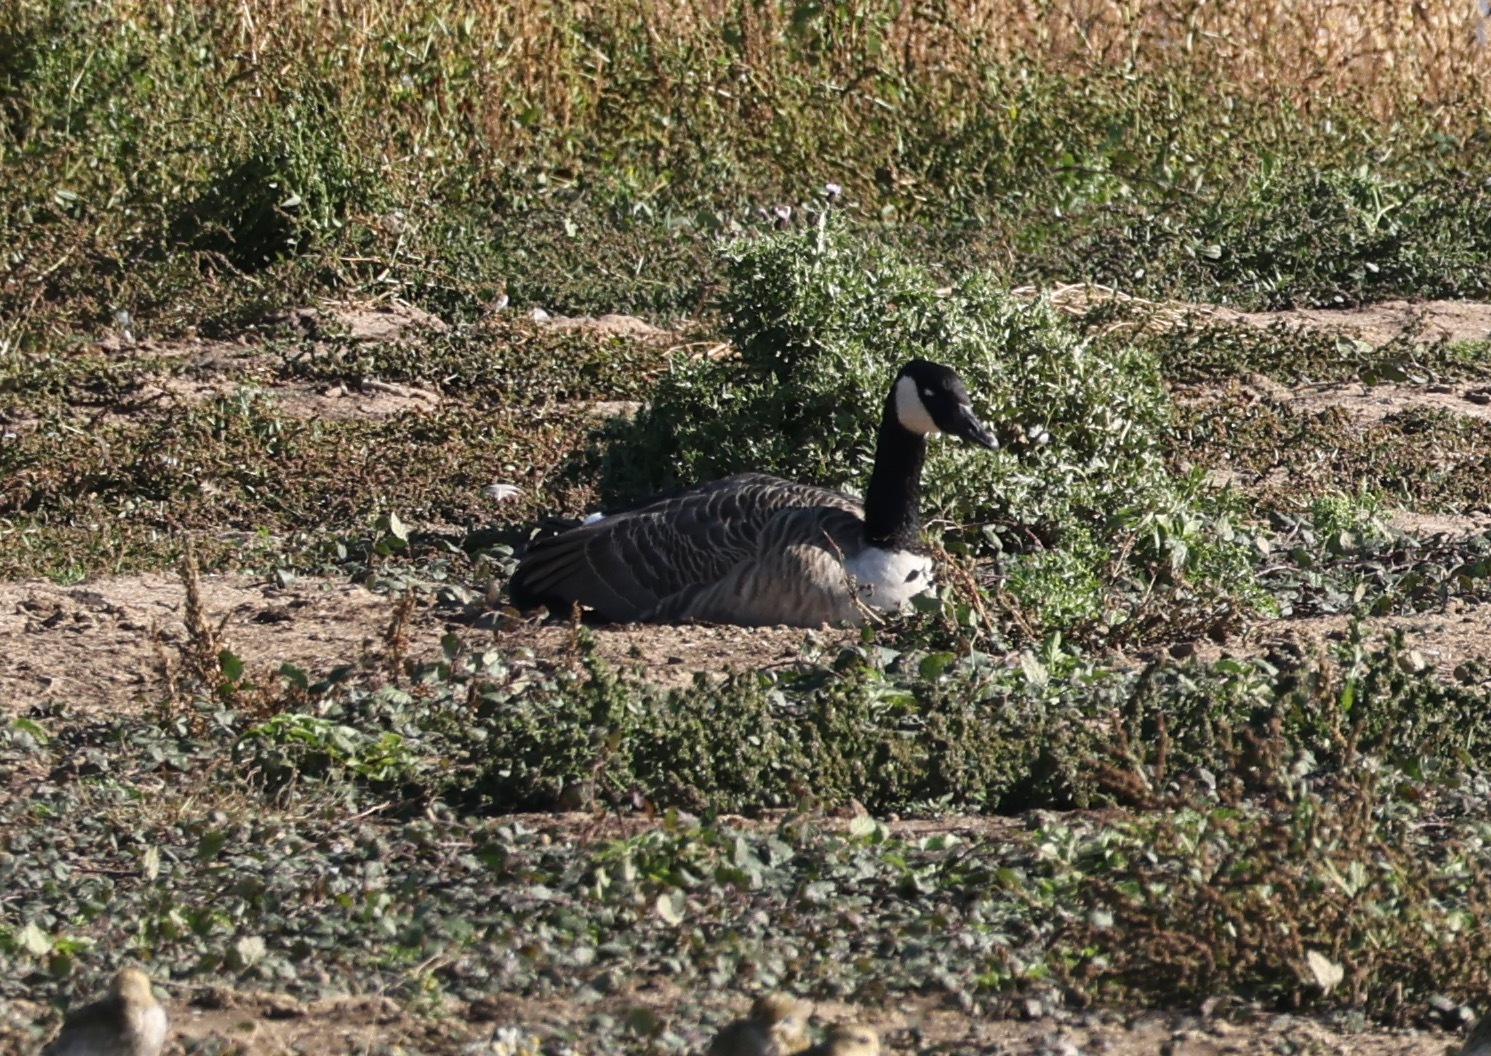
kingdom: Animalia
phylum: Chordata
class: Aves
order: Anseriformes
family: Anatidae
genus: Branta
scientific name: Branta canadensis
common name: Canada goose
